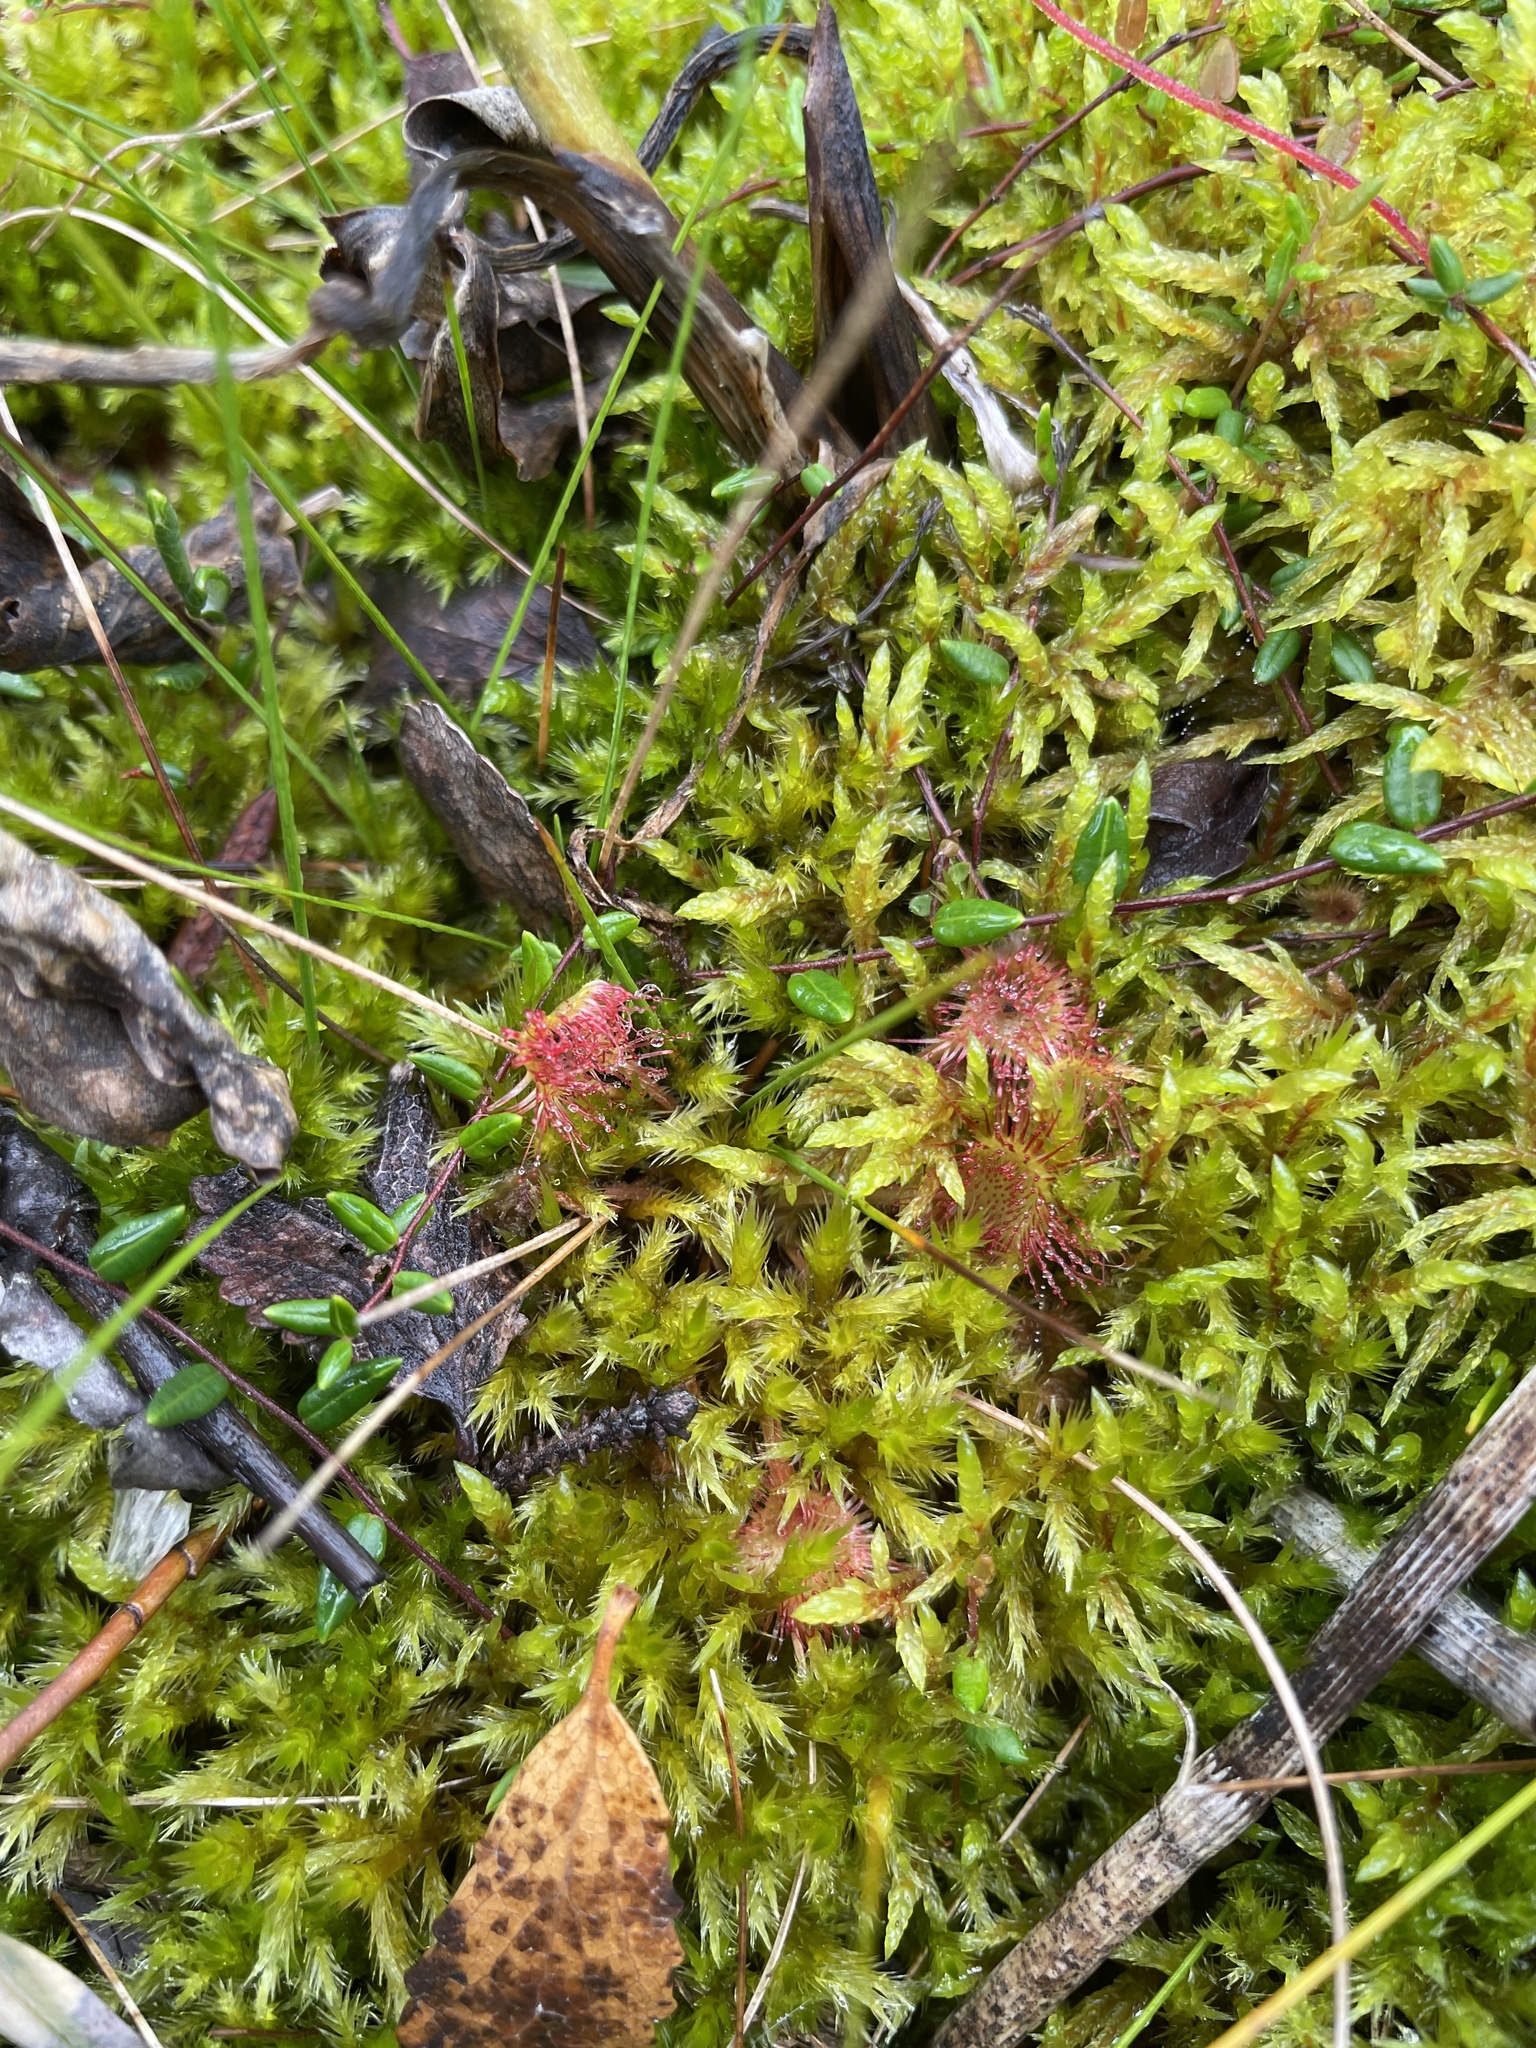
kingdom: Plantae
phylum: Tracheophyta
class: Magnoliopsida
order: Caryophyllales
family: Droseraceae
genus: Drosera
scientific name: Drosera rotundifolia
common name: Round-leaved sundew
